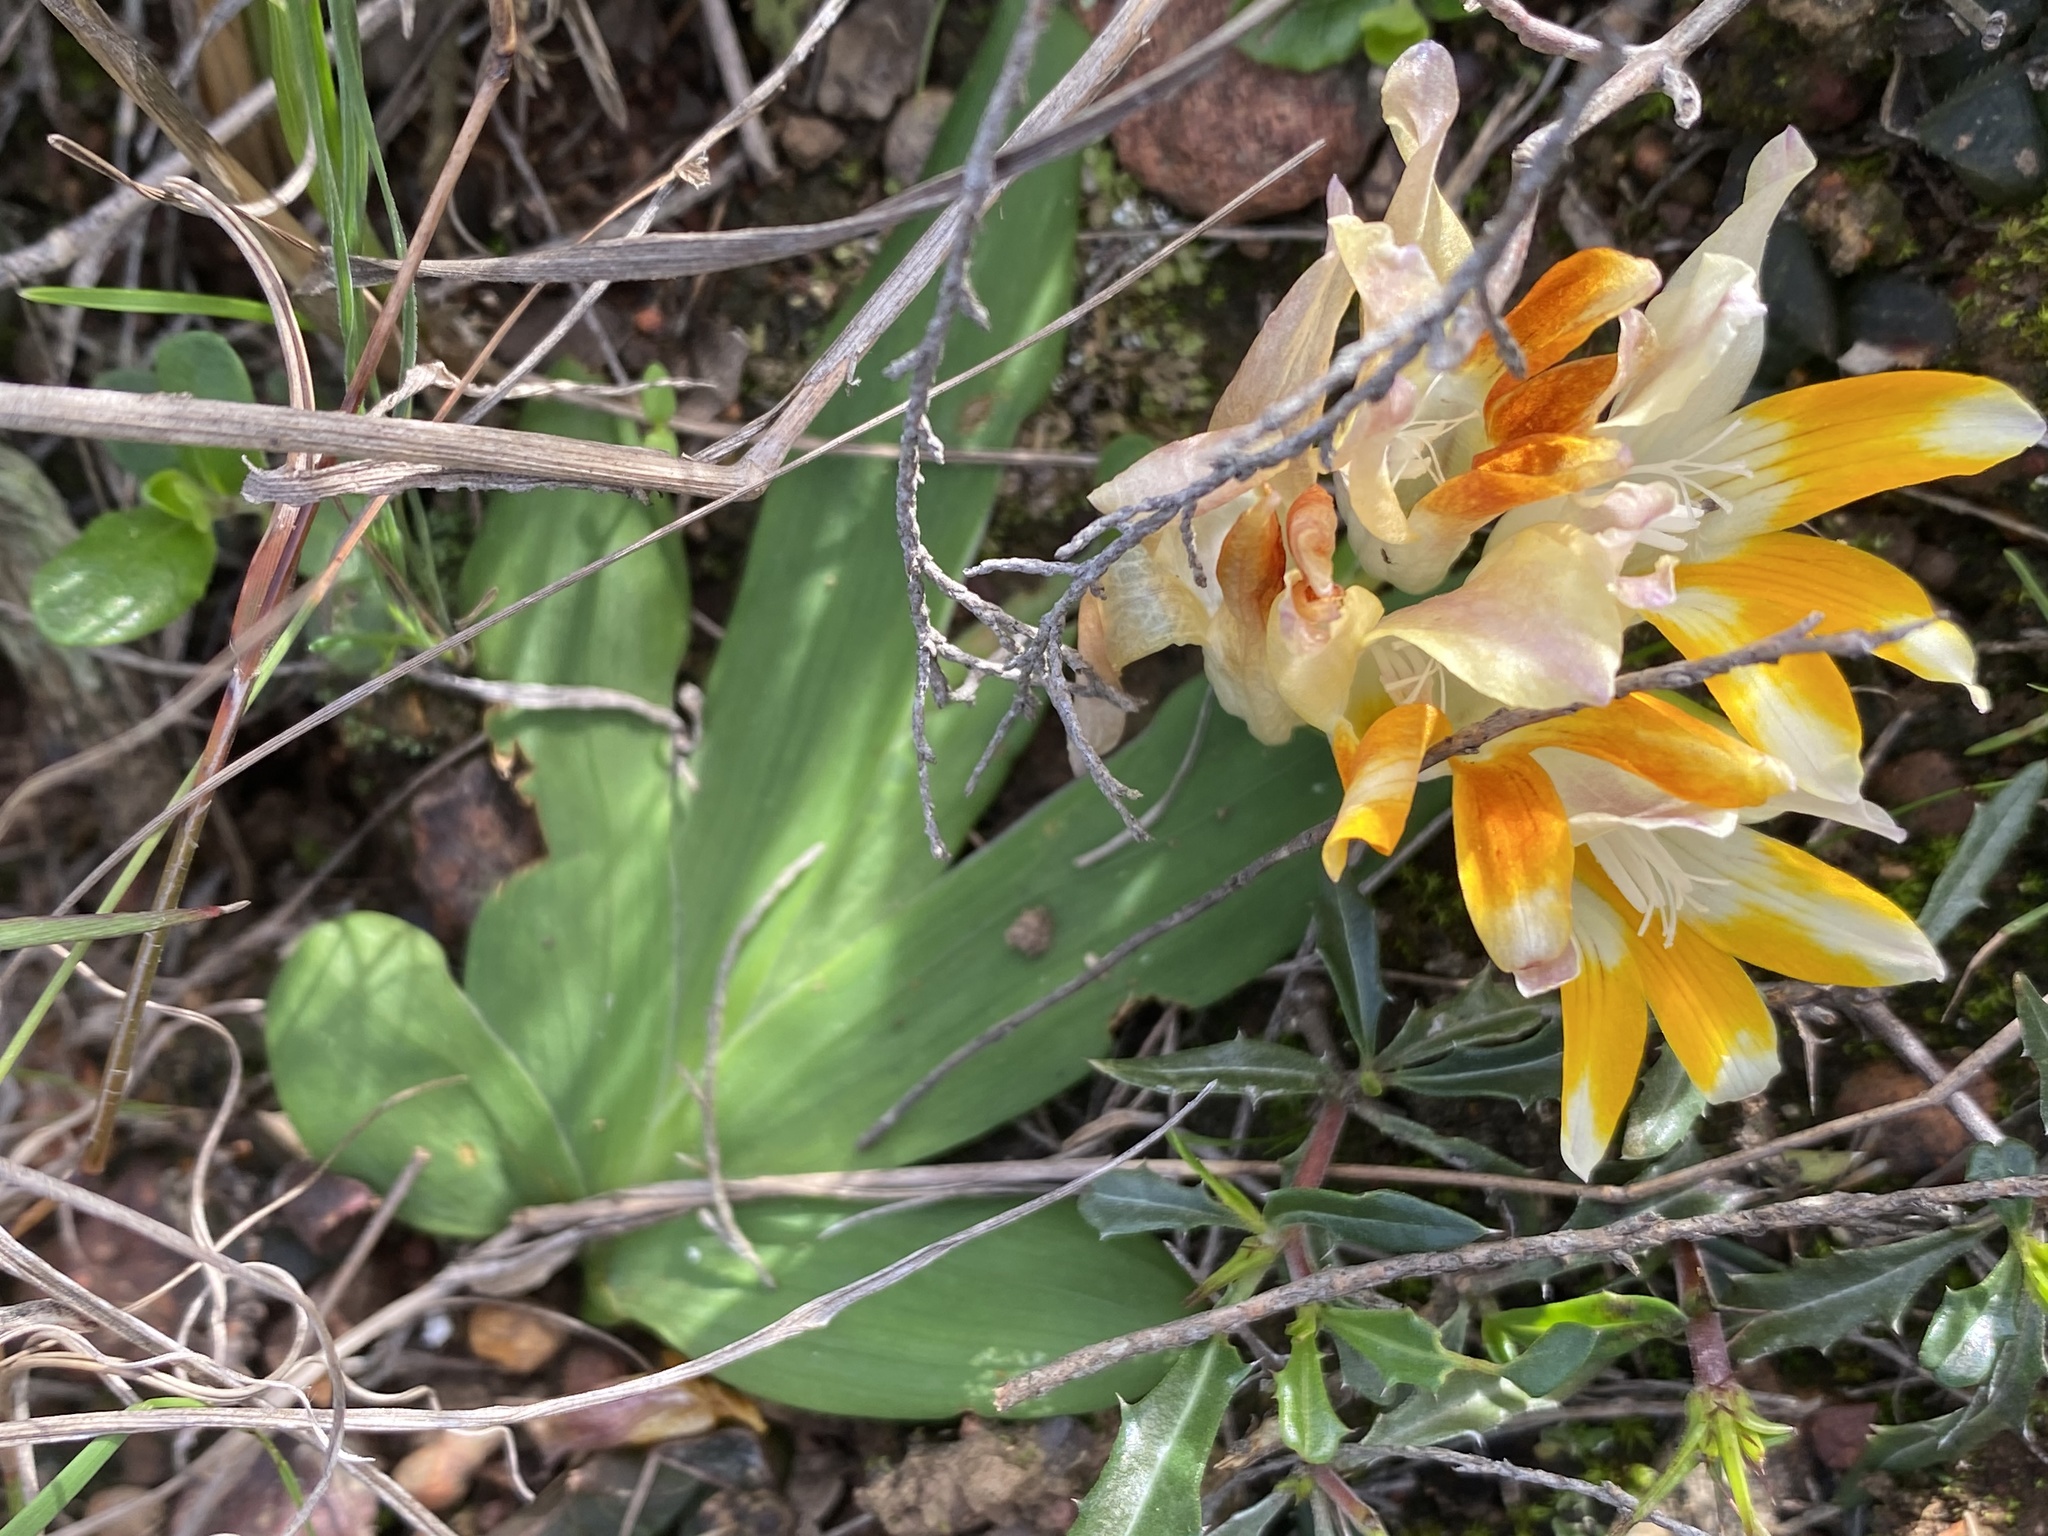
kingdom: Plantae
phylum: Tracheophyta
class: Liliopsida
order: Asparagales
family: Iridaceae
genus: Freesia
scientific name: Freesia fergusoniae
